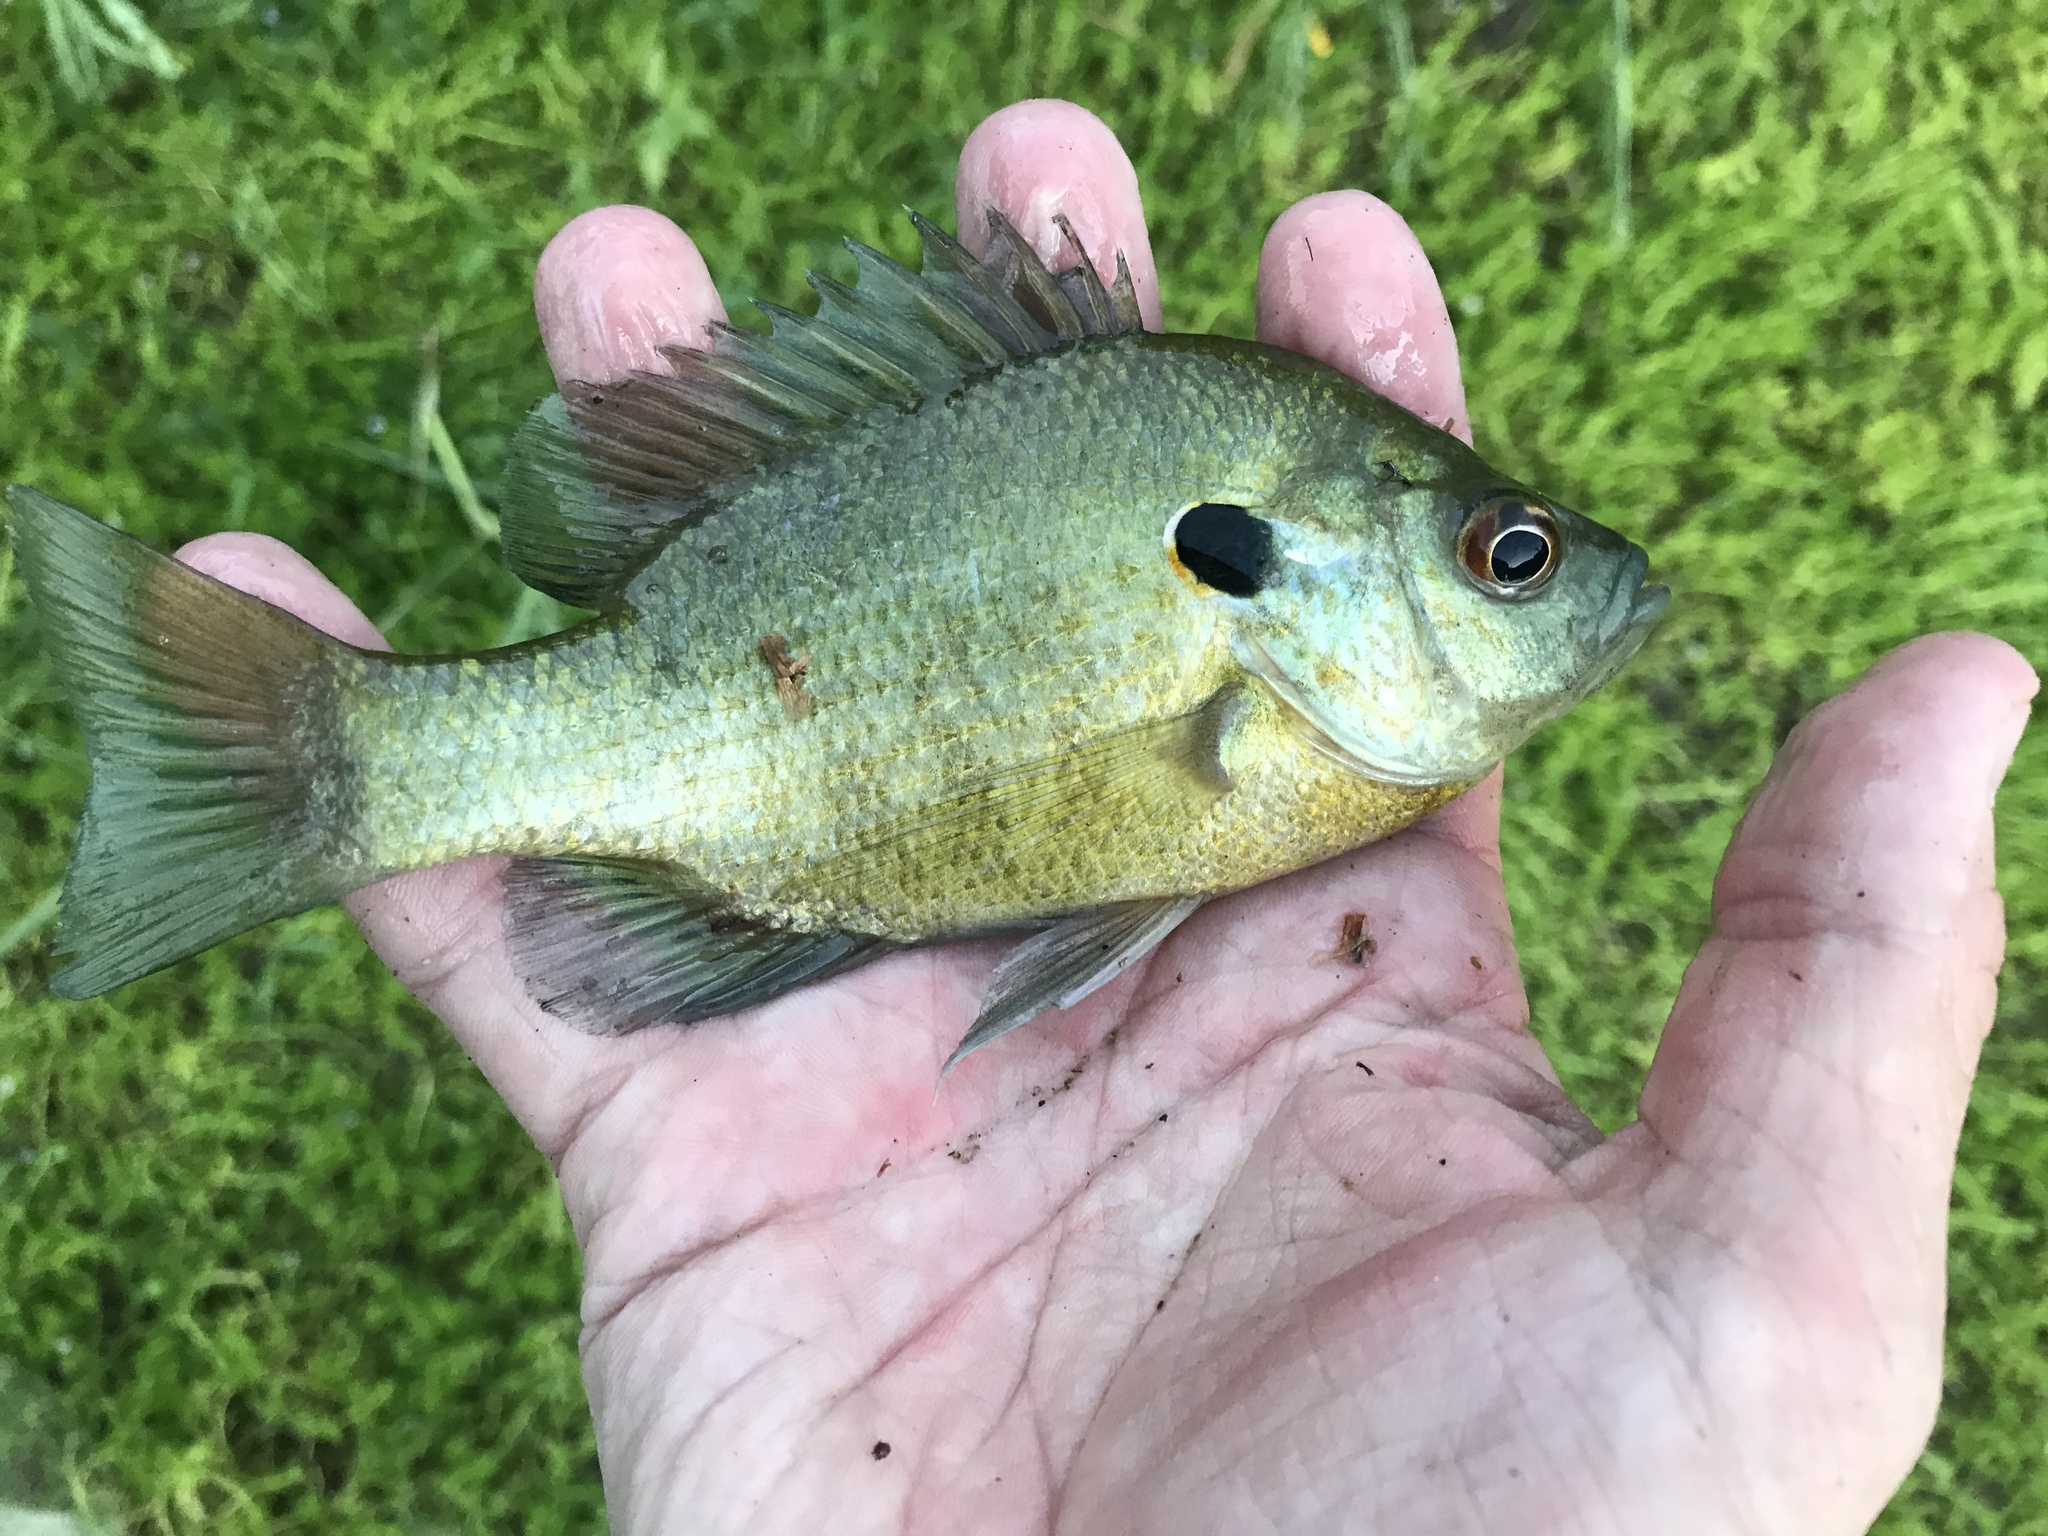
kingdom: Animalia
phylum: Chordata
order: Perciformes
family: Centrarchidae
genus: Lepomis
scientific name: Lepomis microlophus
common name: Redear sunfish
